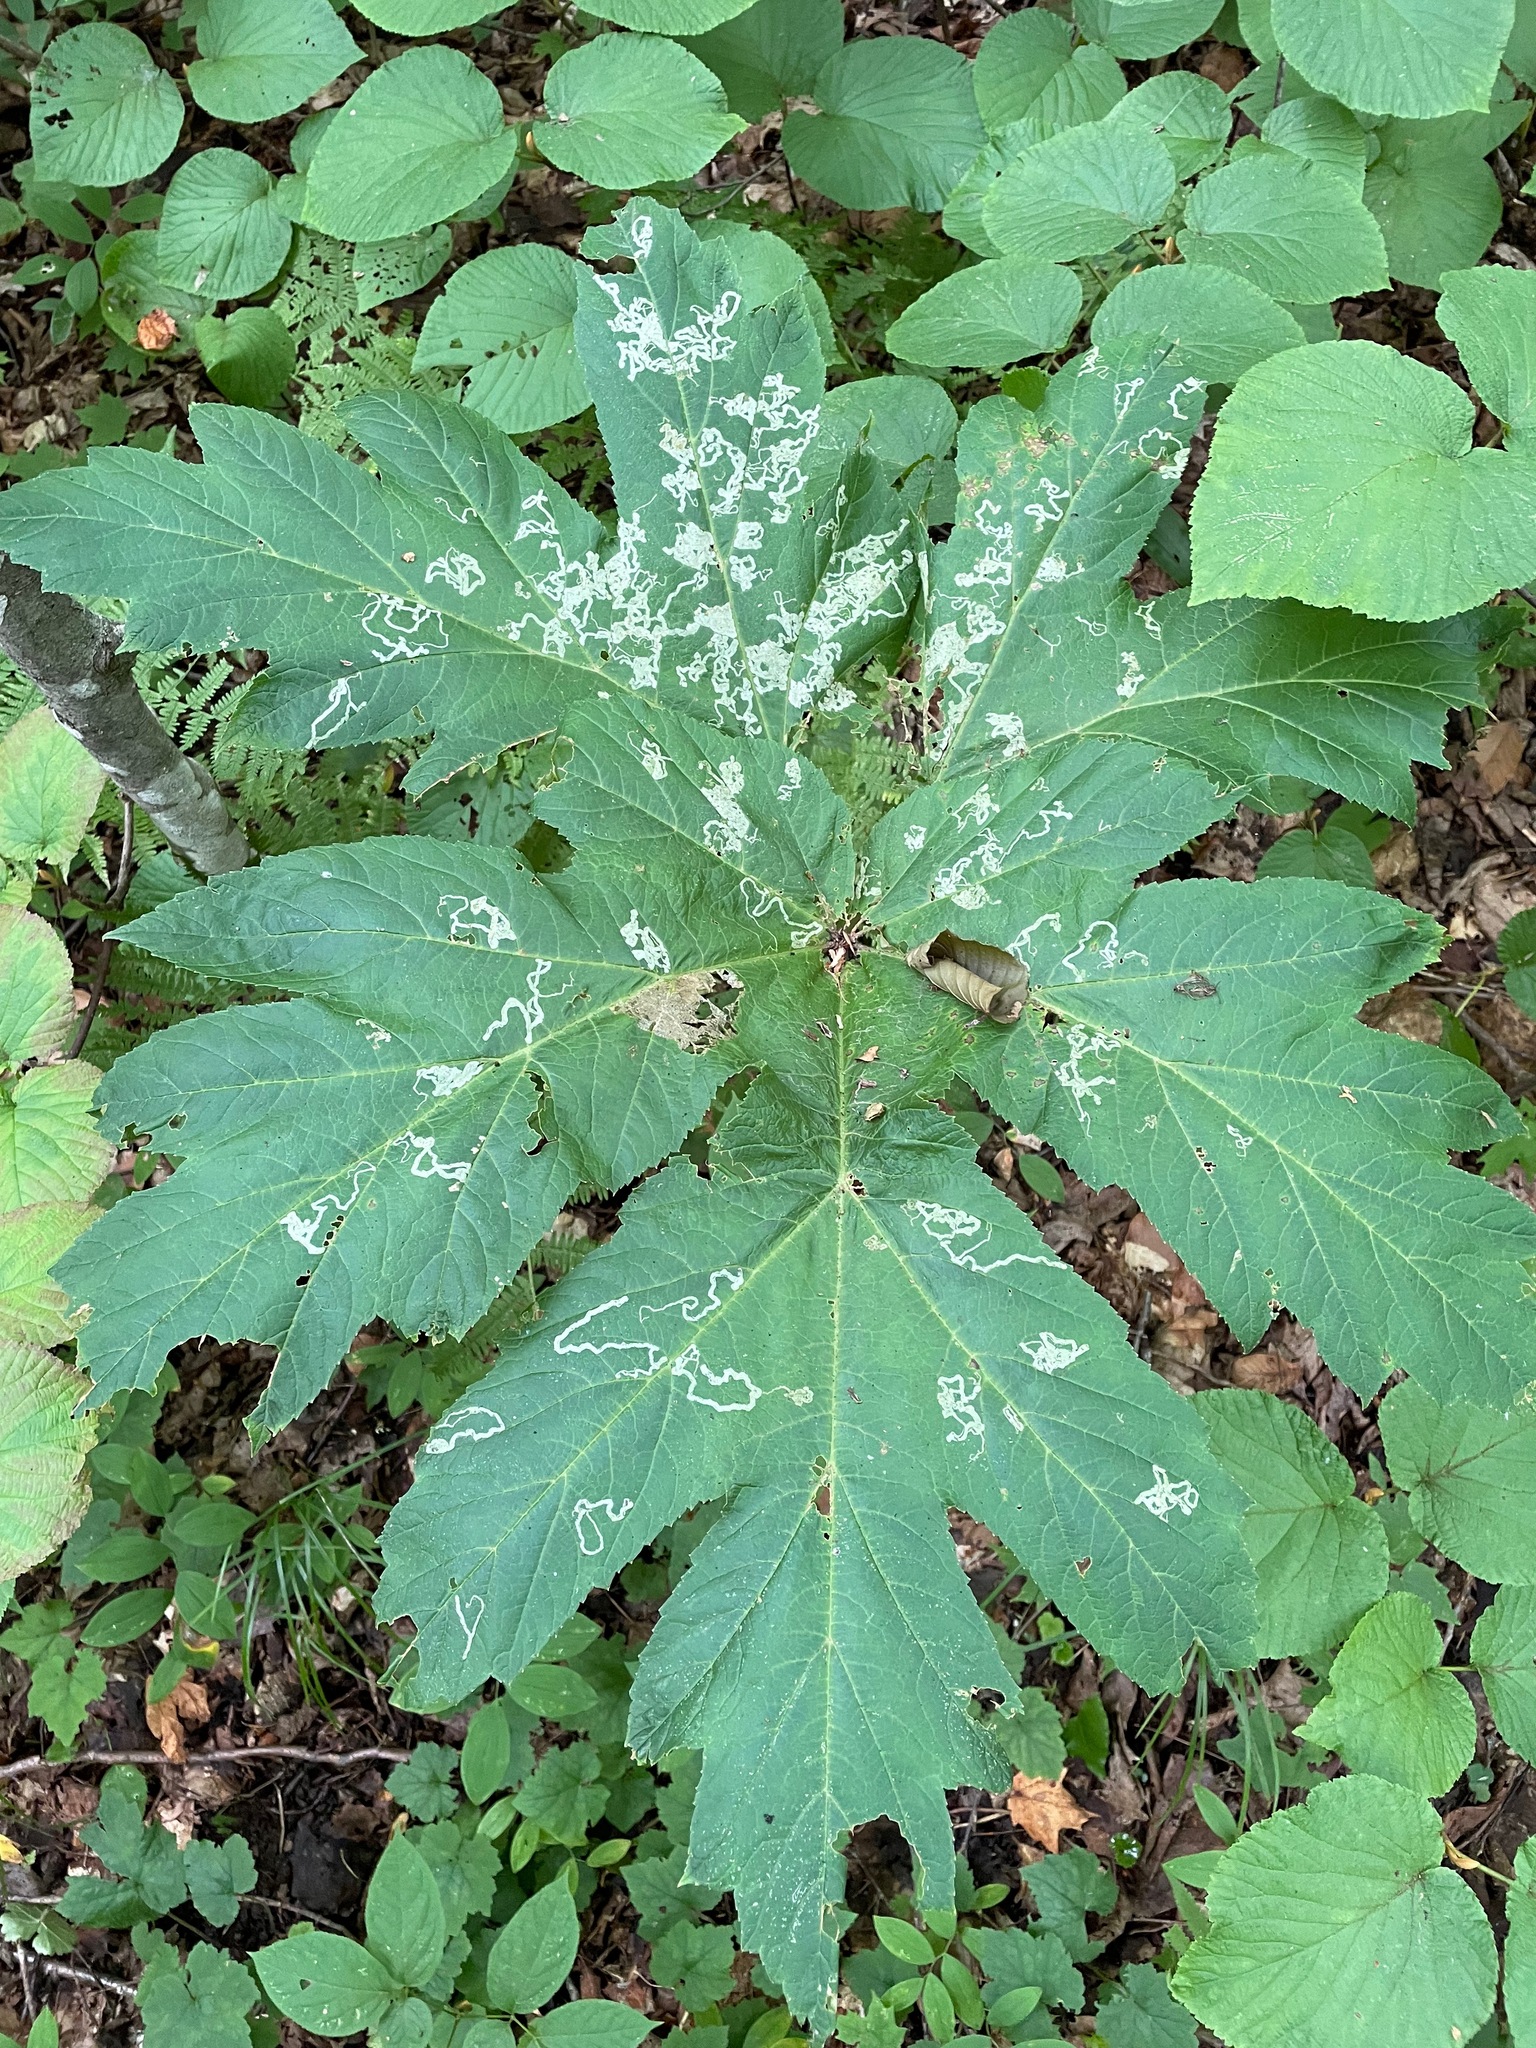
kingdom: Plantae
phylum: Tracheophyta
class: Magnoliopsida
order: Apiales
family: Apiaceae
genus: Heracleum
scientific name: Heracleum maximum
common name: American cow parsnip
